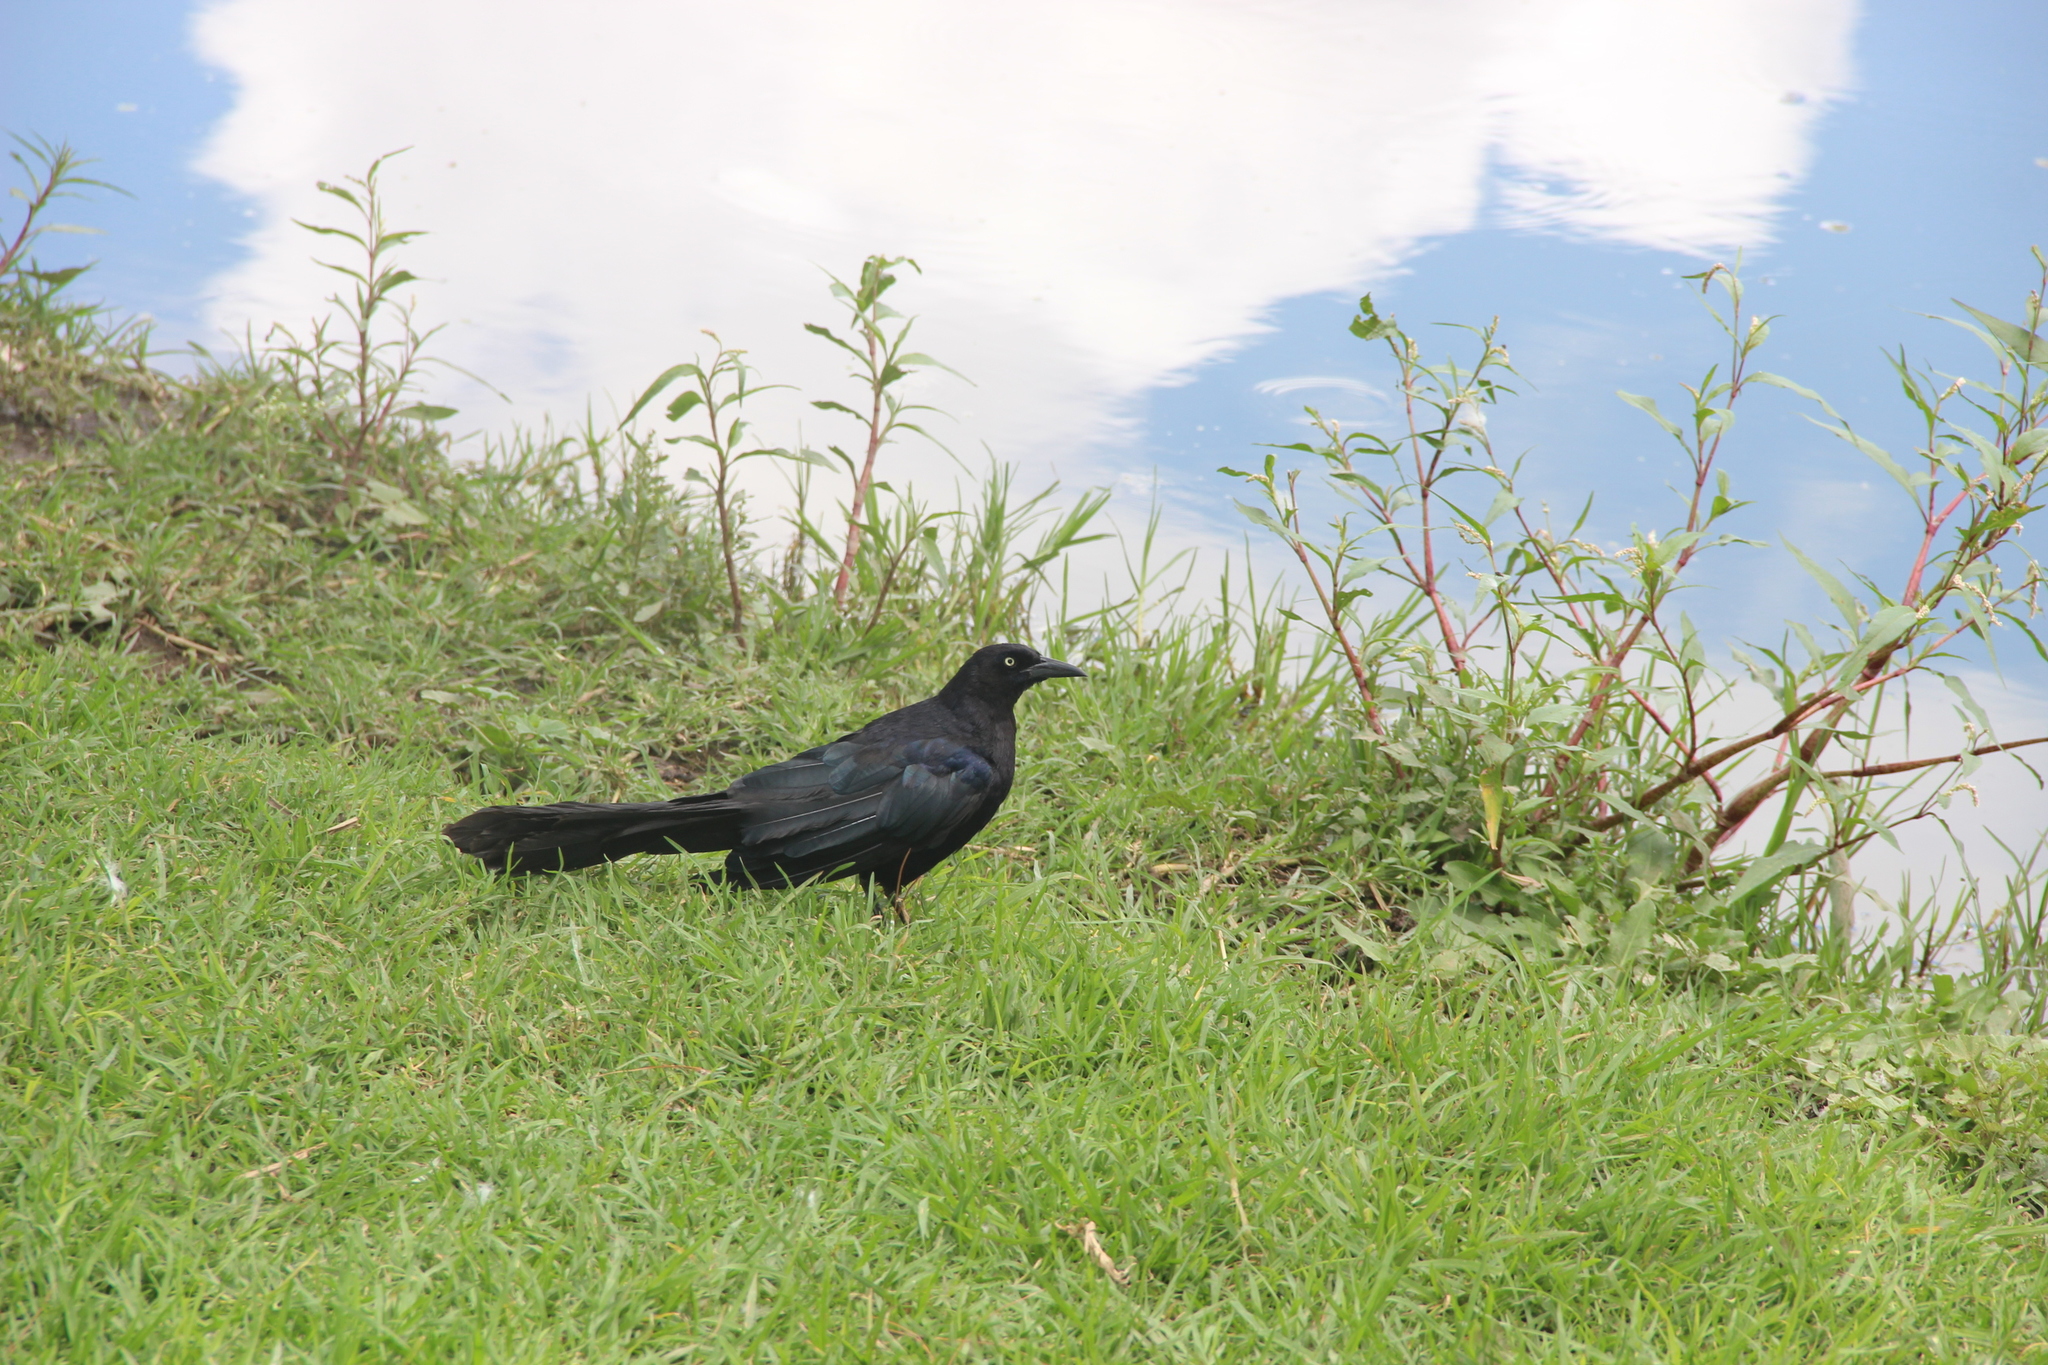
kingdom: Animalia
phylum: Chordata
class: Aves
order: Passeriformes
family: Icteridae
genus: Quiscalus
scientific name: Quiscalus mexicanus
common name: Great-tailed grackle
